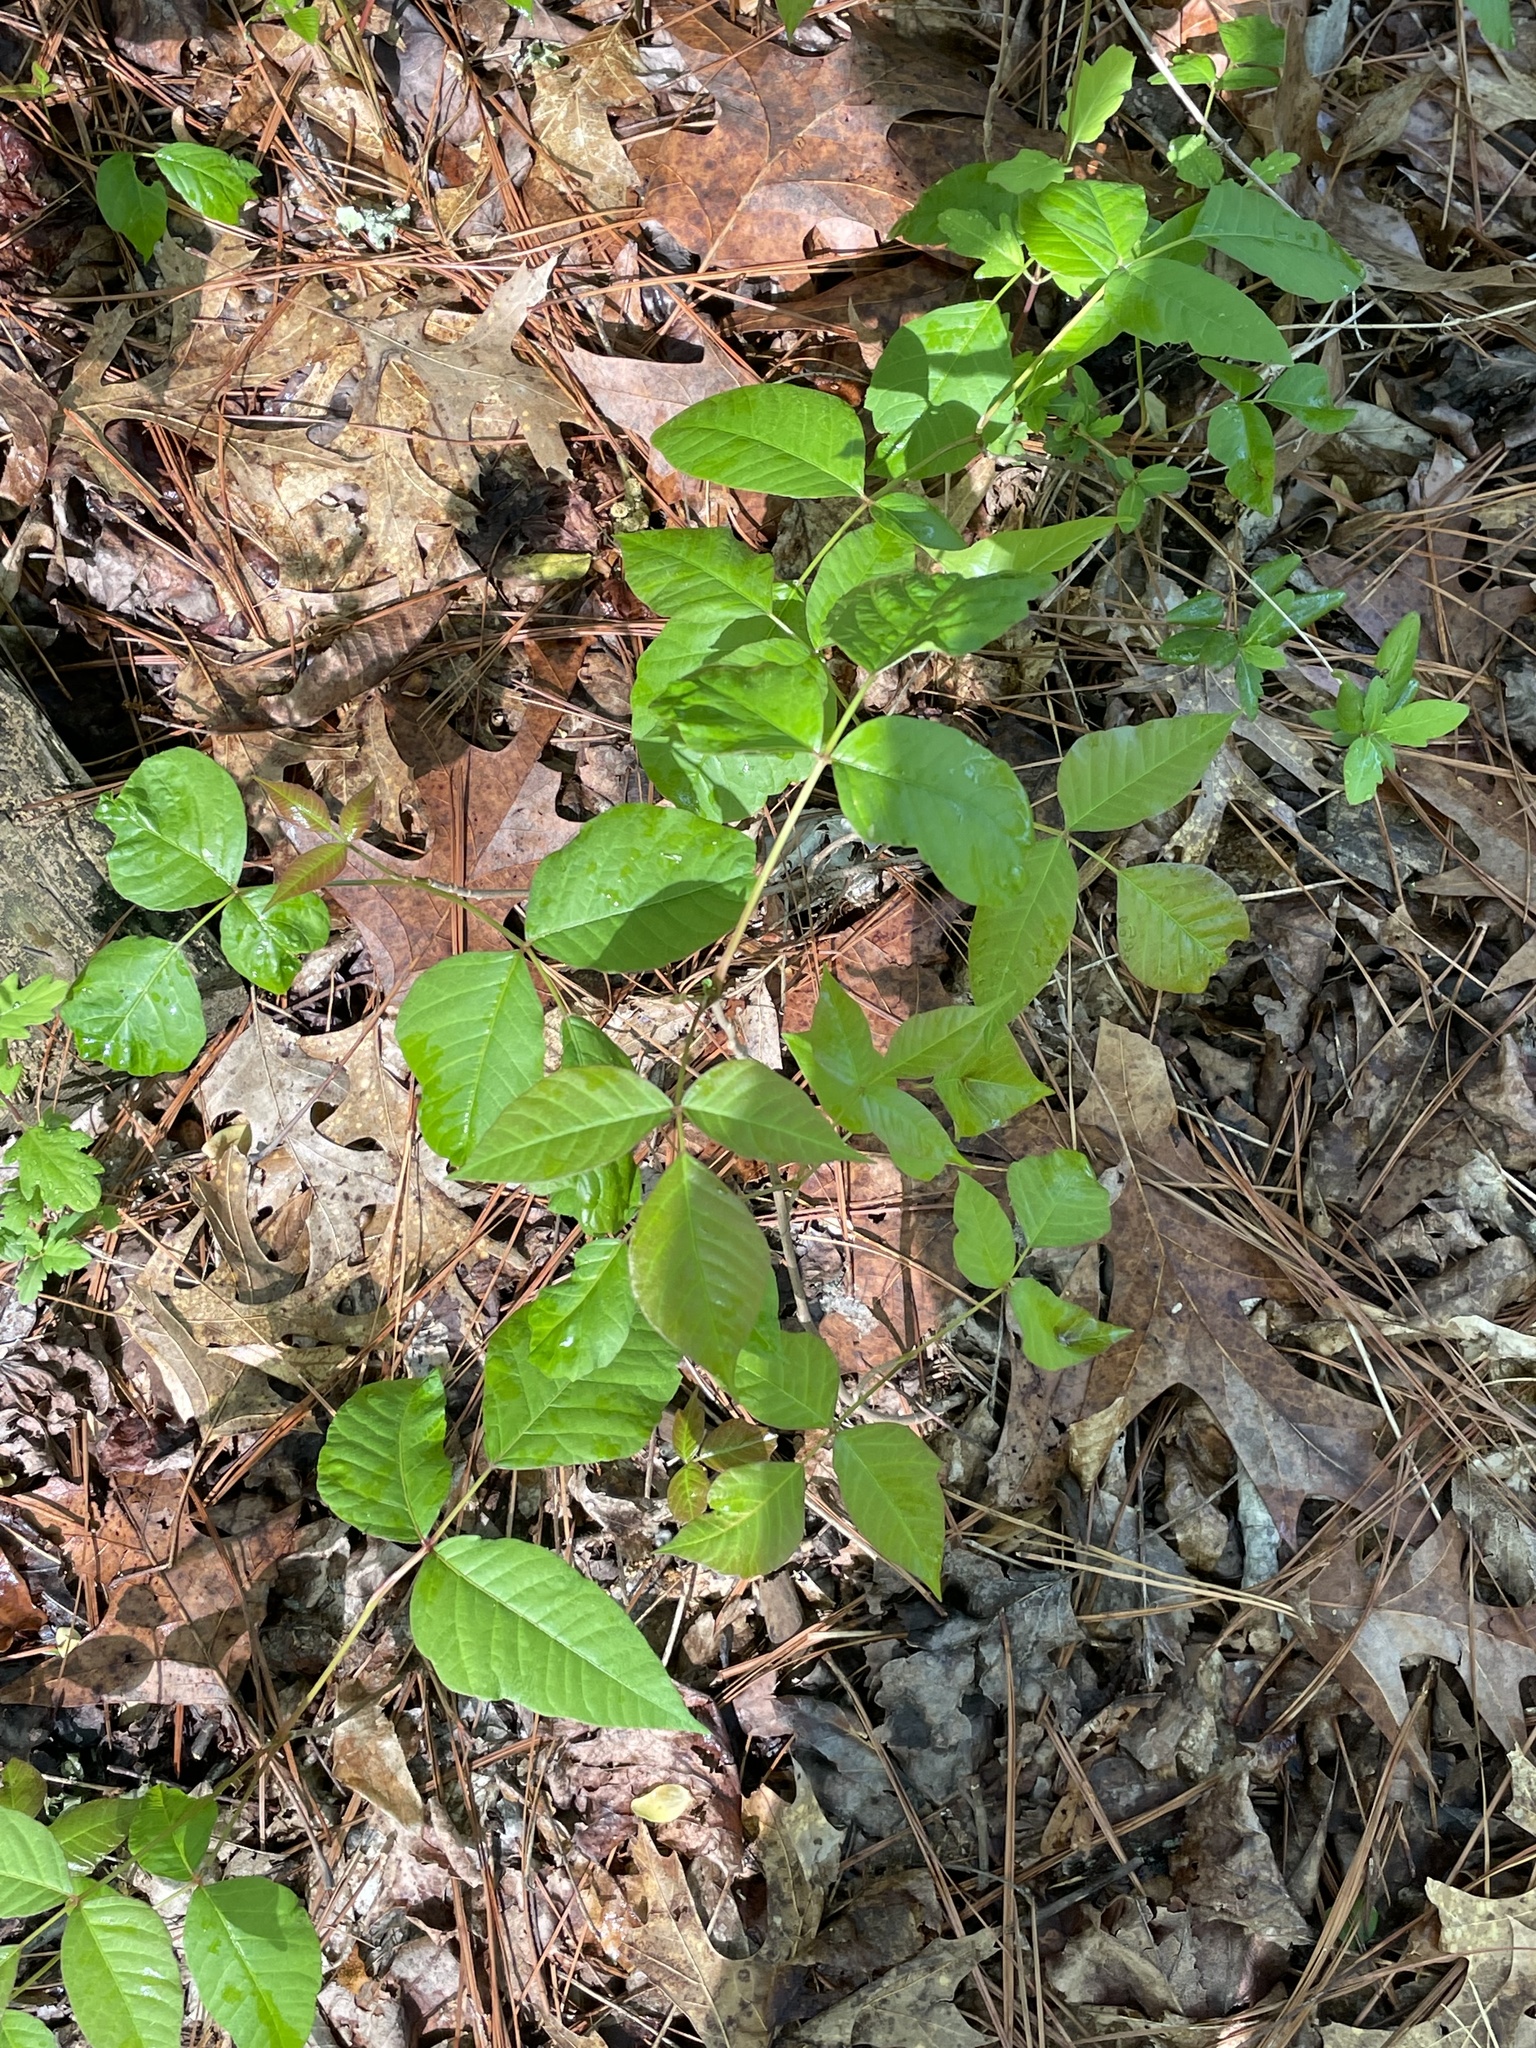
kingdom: Plantae
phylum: Tracheophyta
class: Magnoliopsida
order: Sapindales
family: Anacardiaceae
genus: Toxicodendron
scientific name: Toxicodendron radicans
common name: Poison ivy
